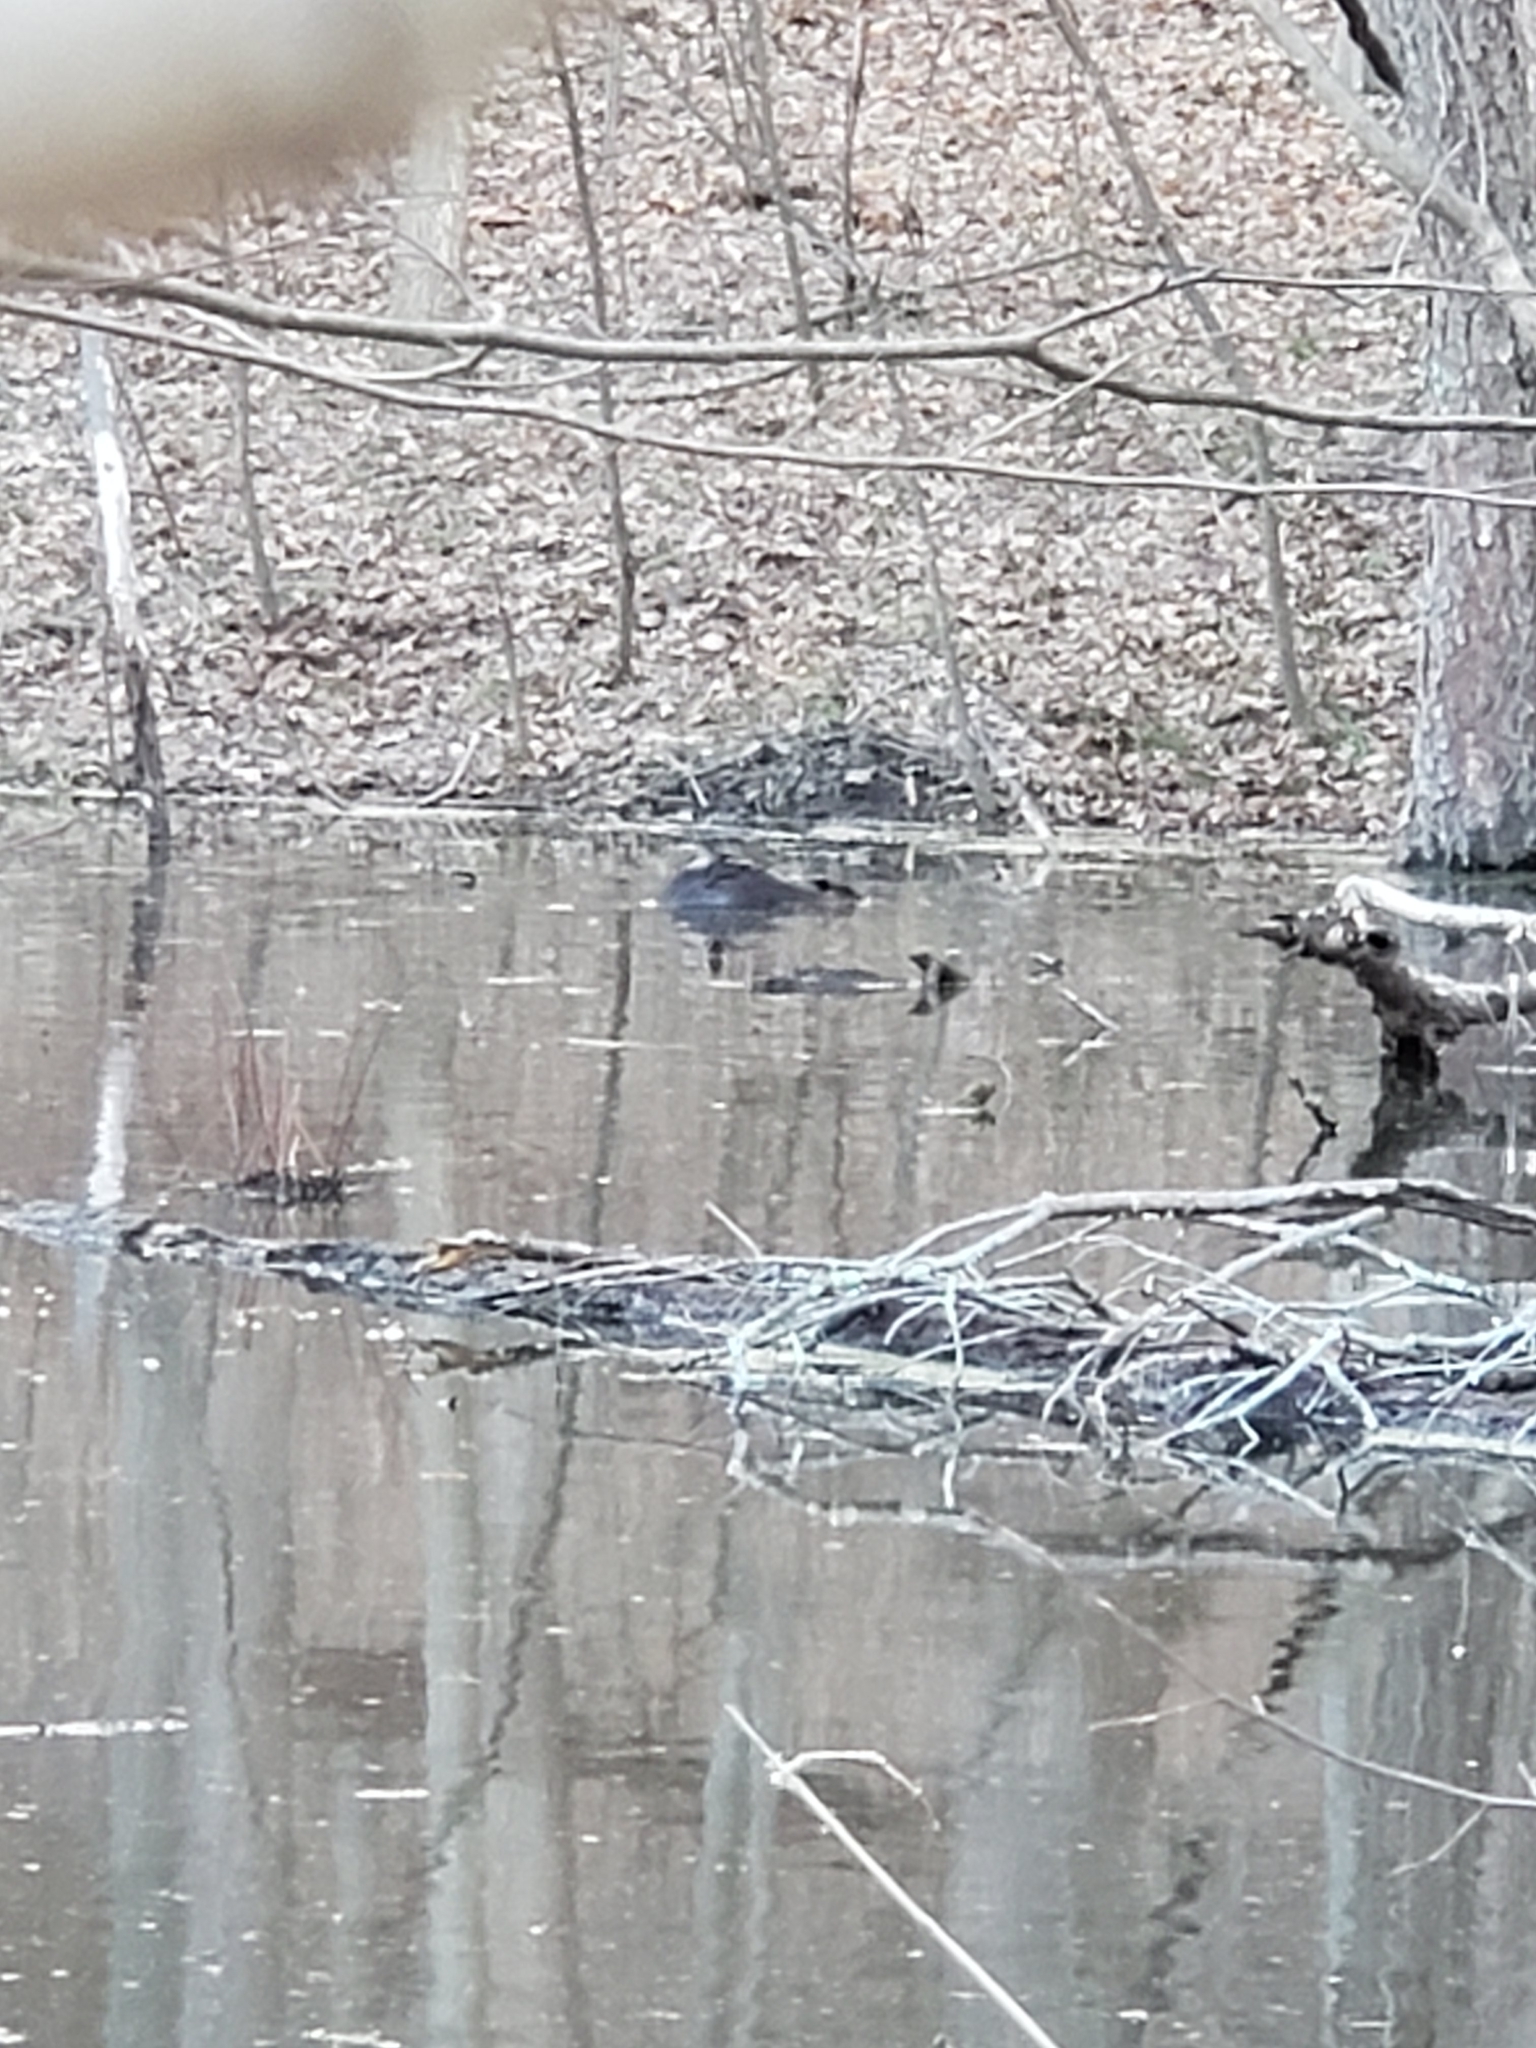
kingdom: Animalia
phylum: Chordata
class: Mammalia
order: Rodentia
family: Castoridae
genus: Castor
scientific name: Castor canadensis
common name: American beaver
